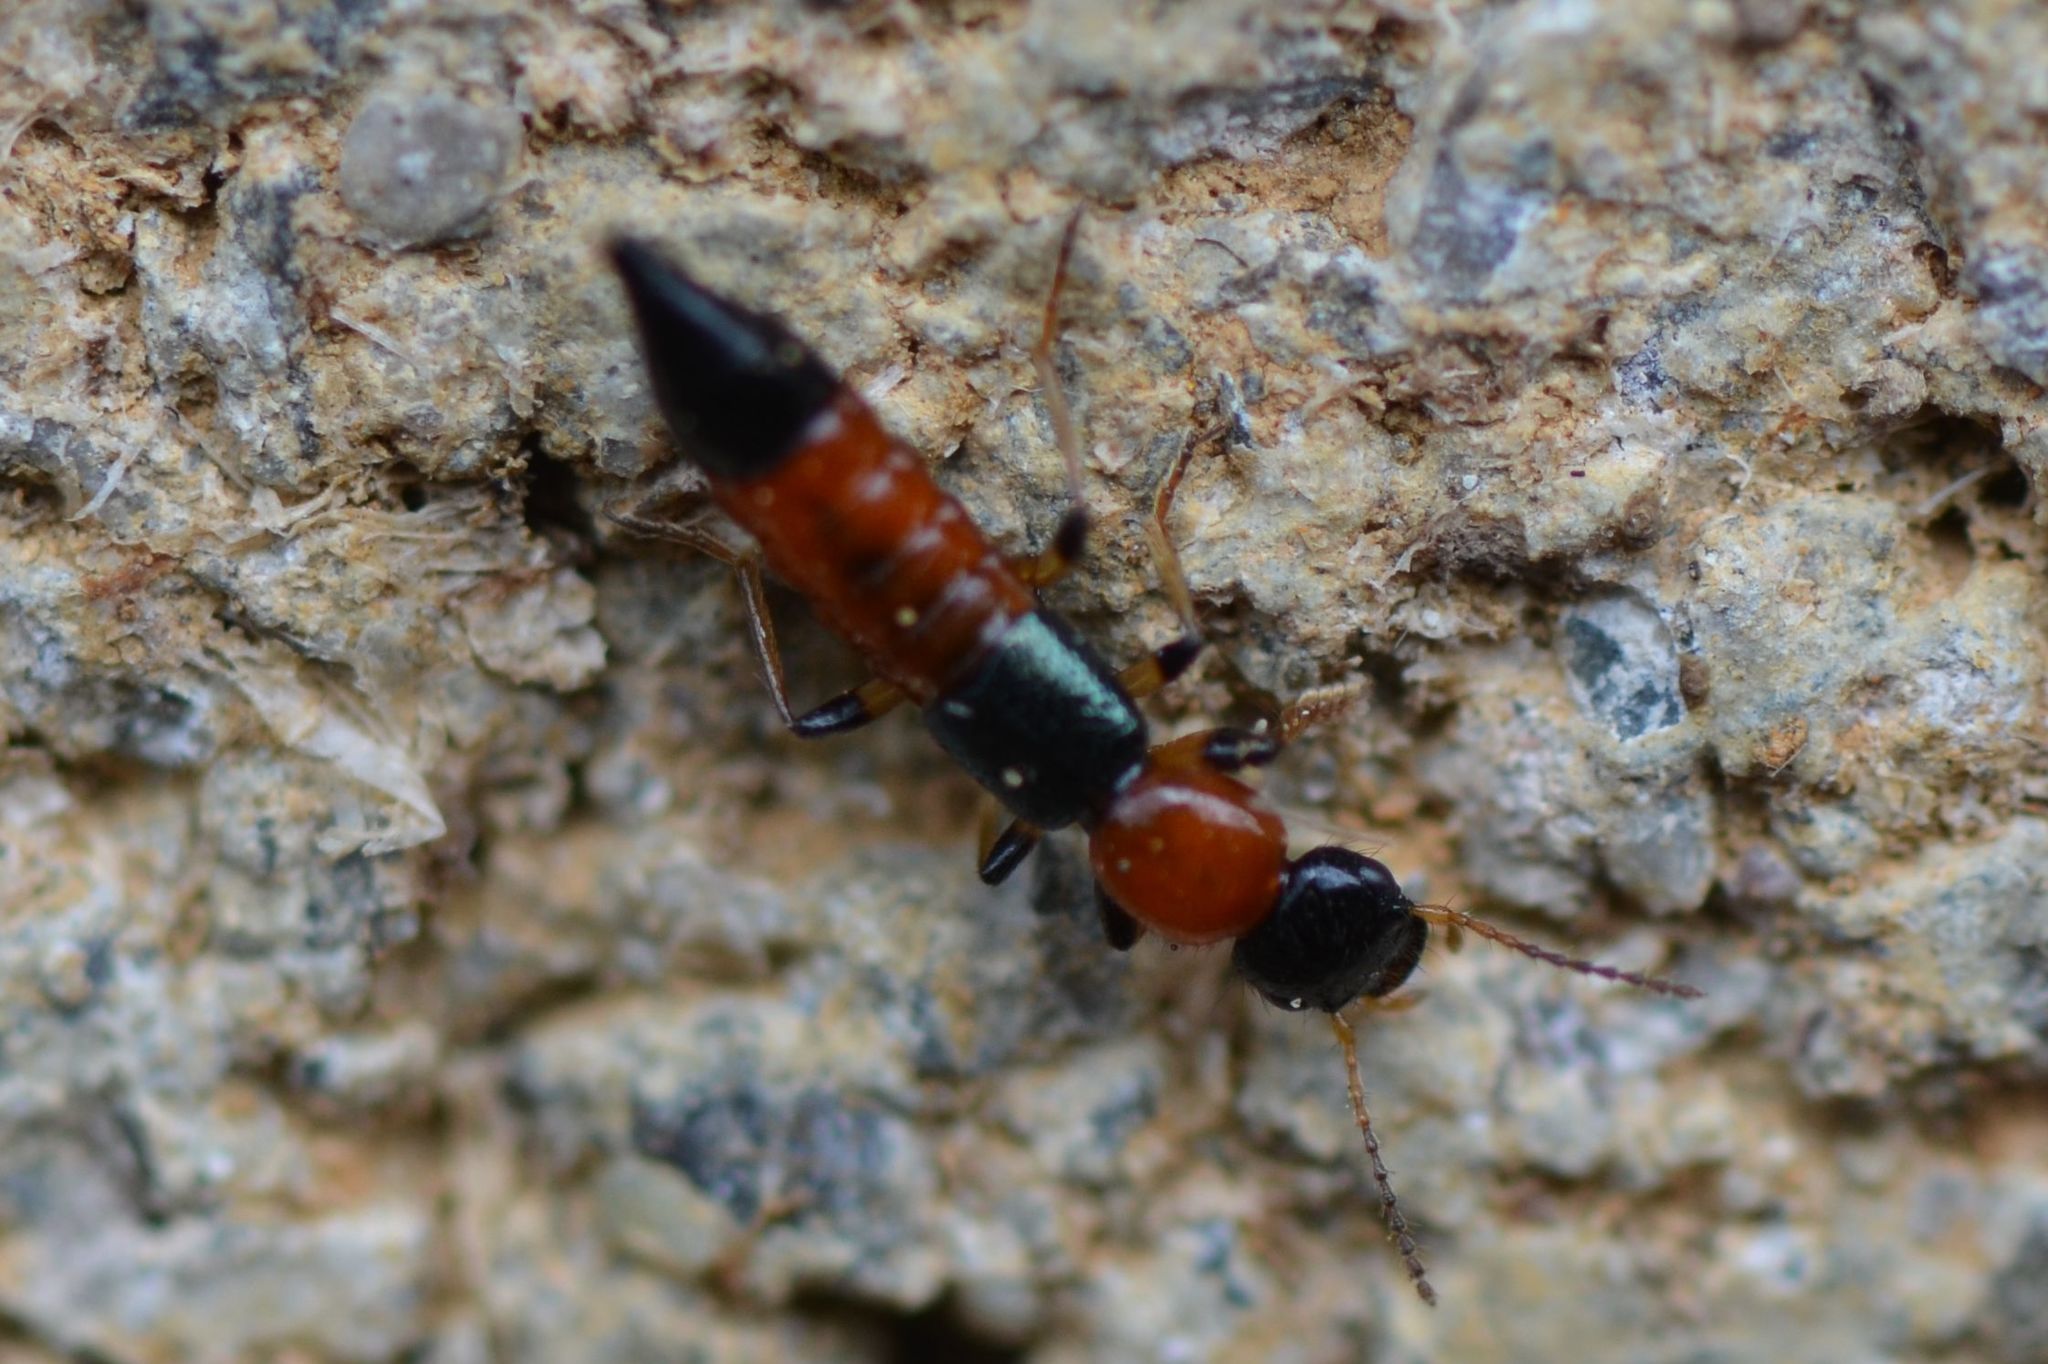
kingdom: Animalia
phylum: Arthropoda
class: Insecta
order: Coleoptera
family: Staphylinidae
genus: Paederus
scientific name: Paederus littoralis
